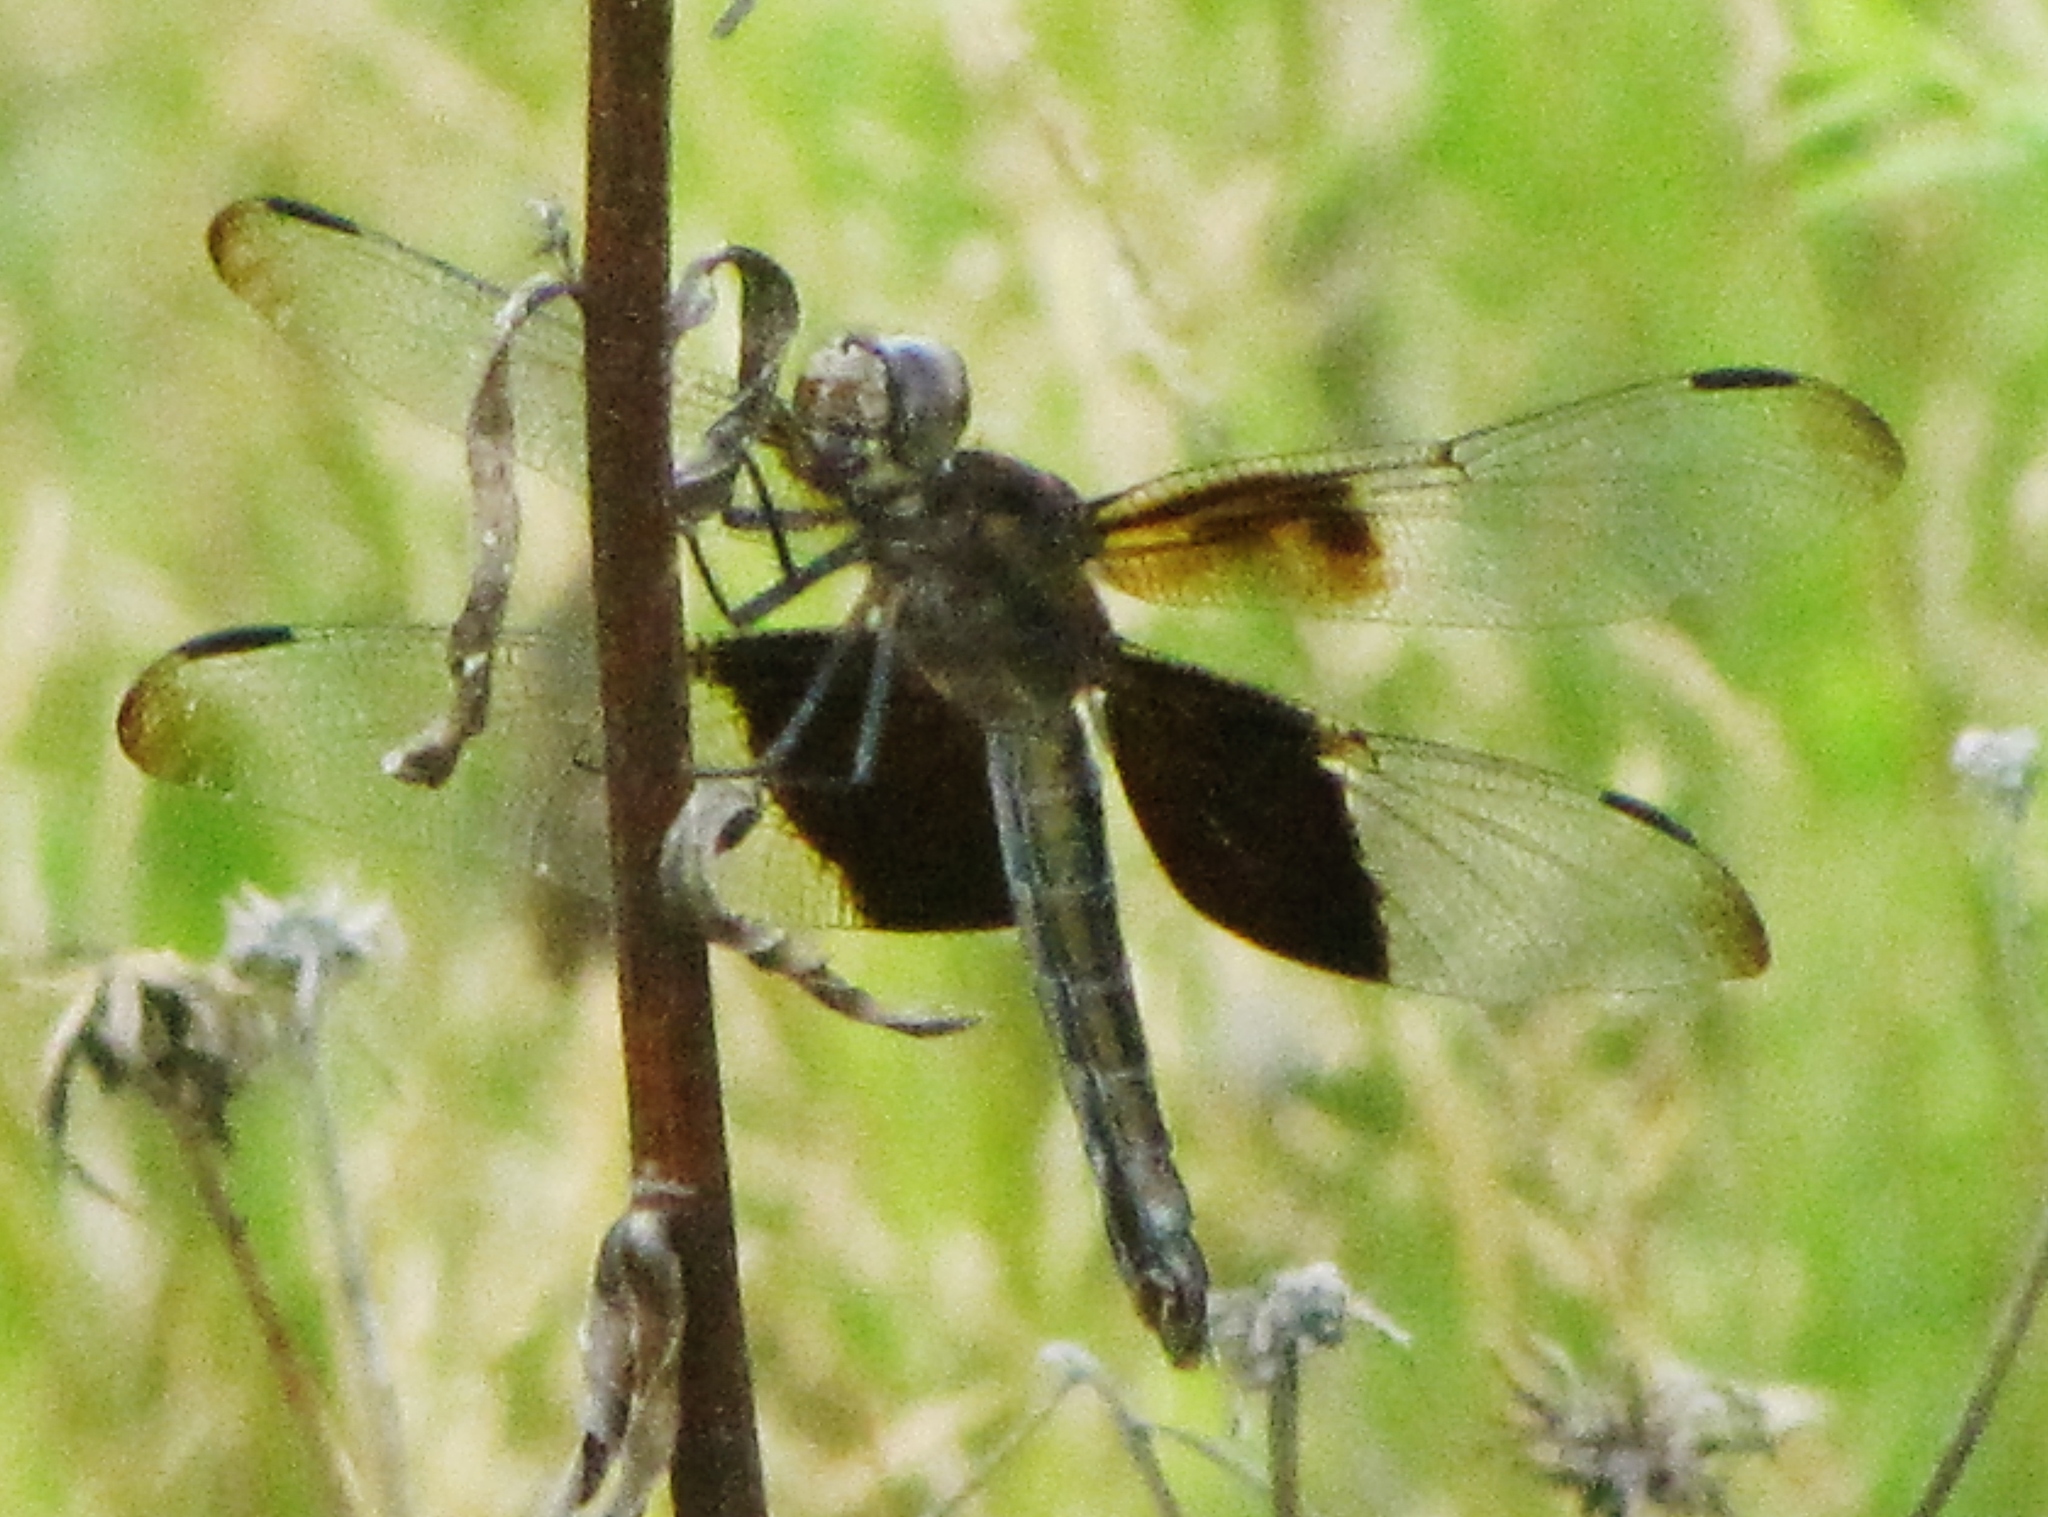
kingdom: Animalia
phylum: Arthropoda
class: Insecta
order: Odonata
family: Libellulidae
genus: Libellula
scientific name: Libellula luctuosa
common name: Widow skimmer
